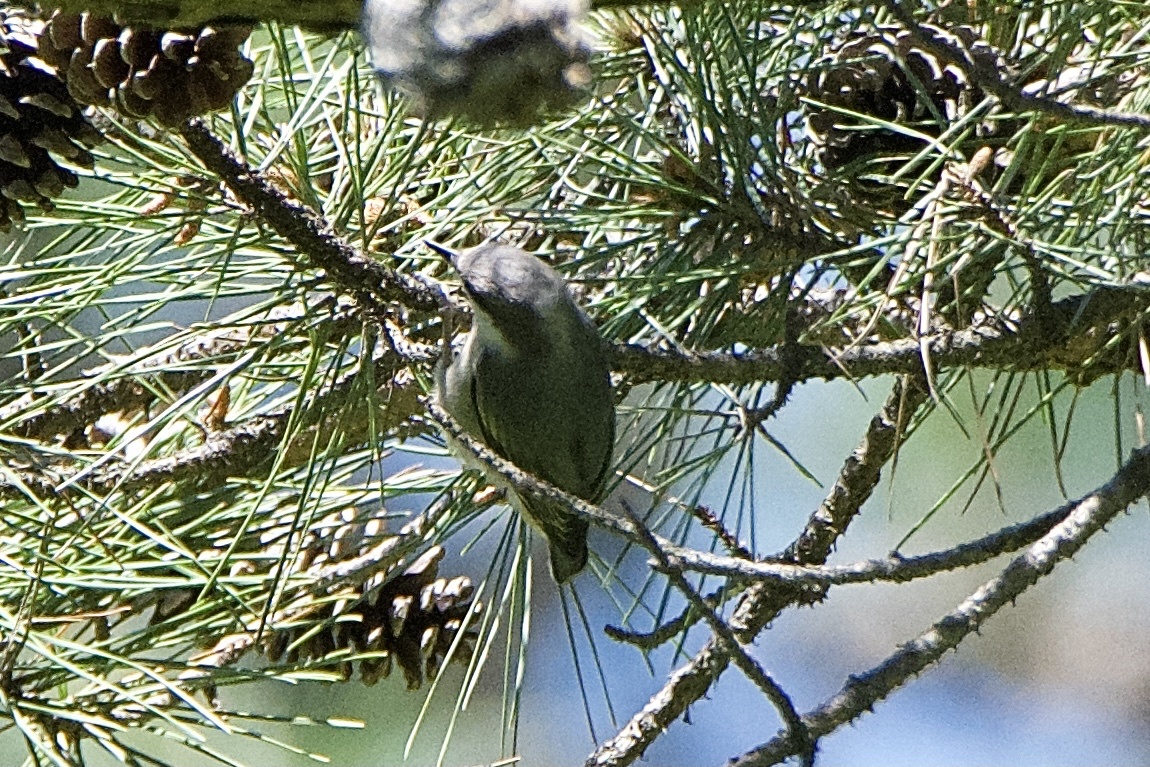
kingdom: Animalia
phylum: Chordata
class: Aves
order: Passeriformes
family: Sittidae
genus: Sitta
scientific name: Sitta pusilla
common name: Brown-headed nuthatch
